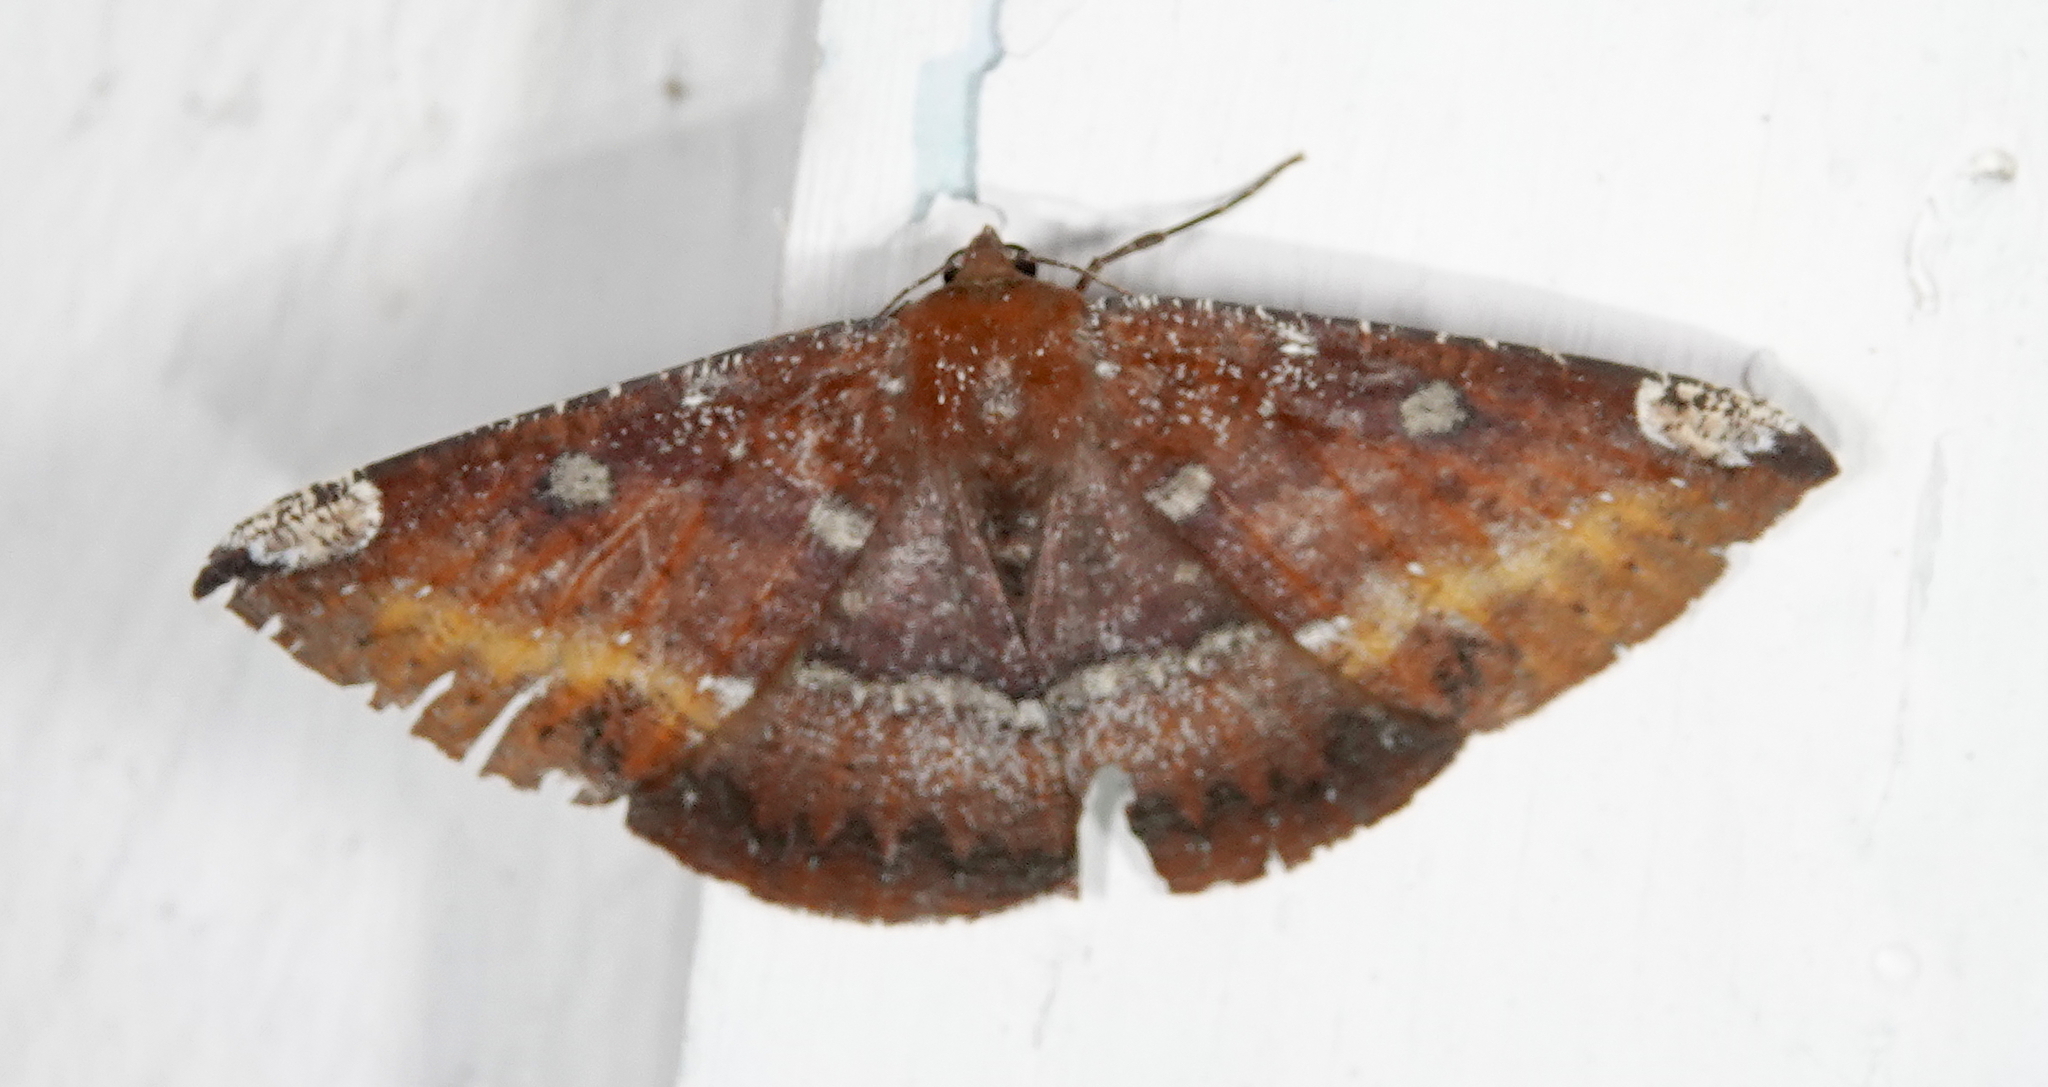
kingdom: Animalia
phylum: Arthropoda
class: Insecta
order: Lepidoptera
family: Geometridae
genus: Herbita
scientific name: Herbita zarina
